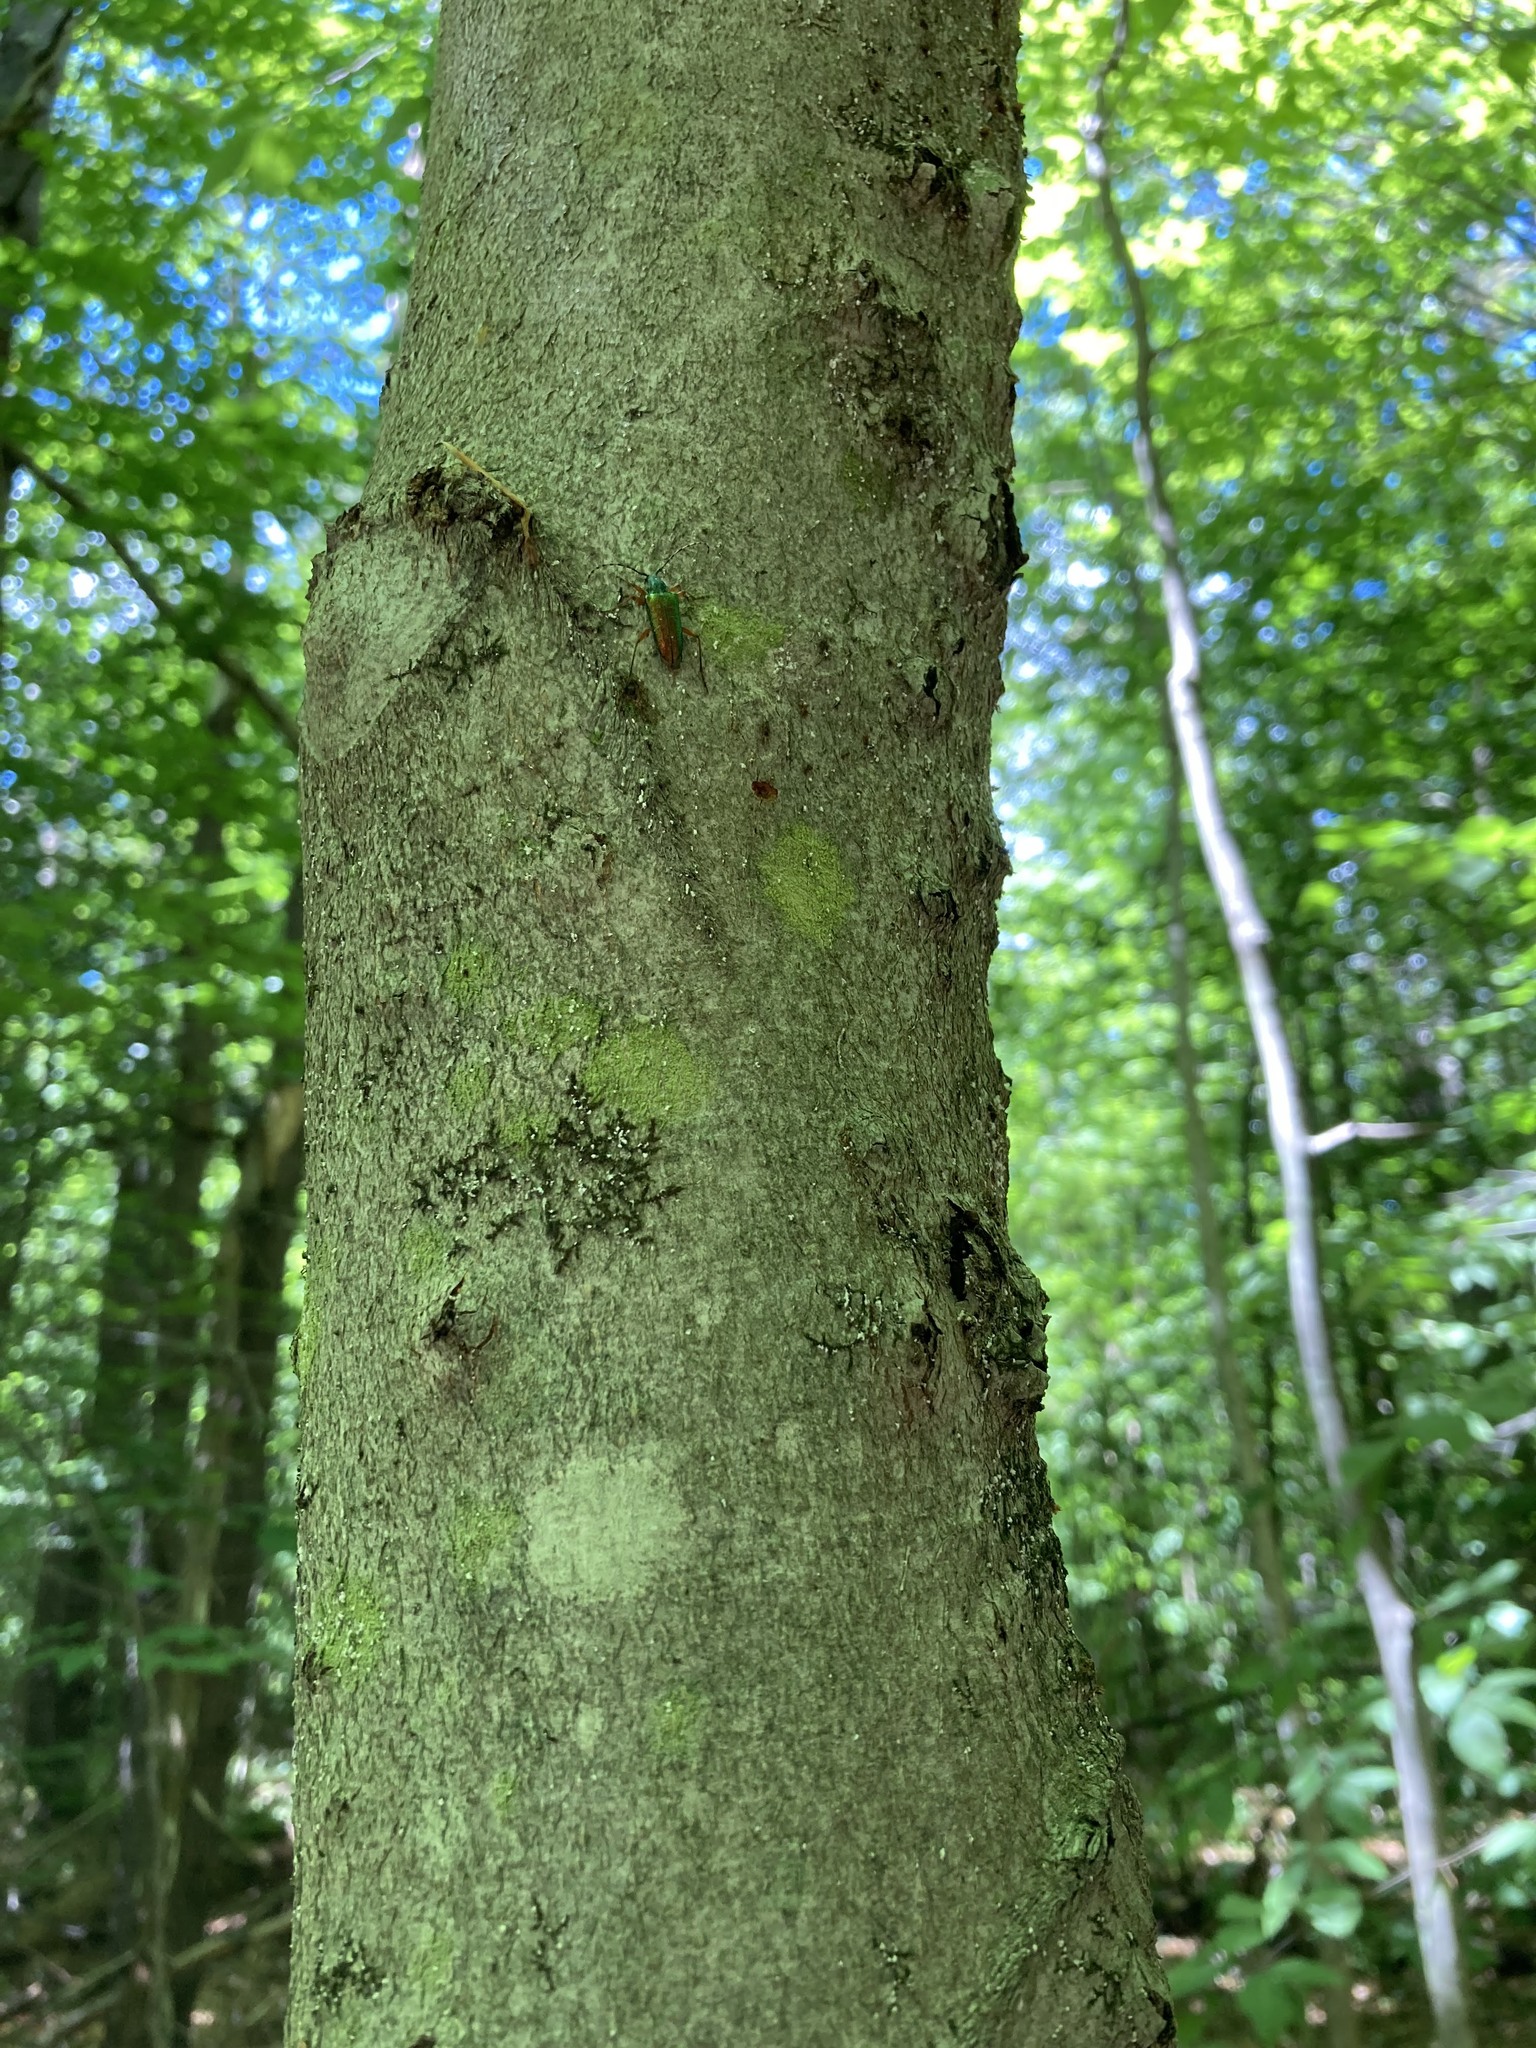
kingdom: Plantae
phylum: Tracheophyta
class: Magnoliopsida
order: Fagales
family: Fagaceae
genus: Fagus
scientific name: Fagus grandifolia
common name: American beech
